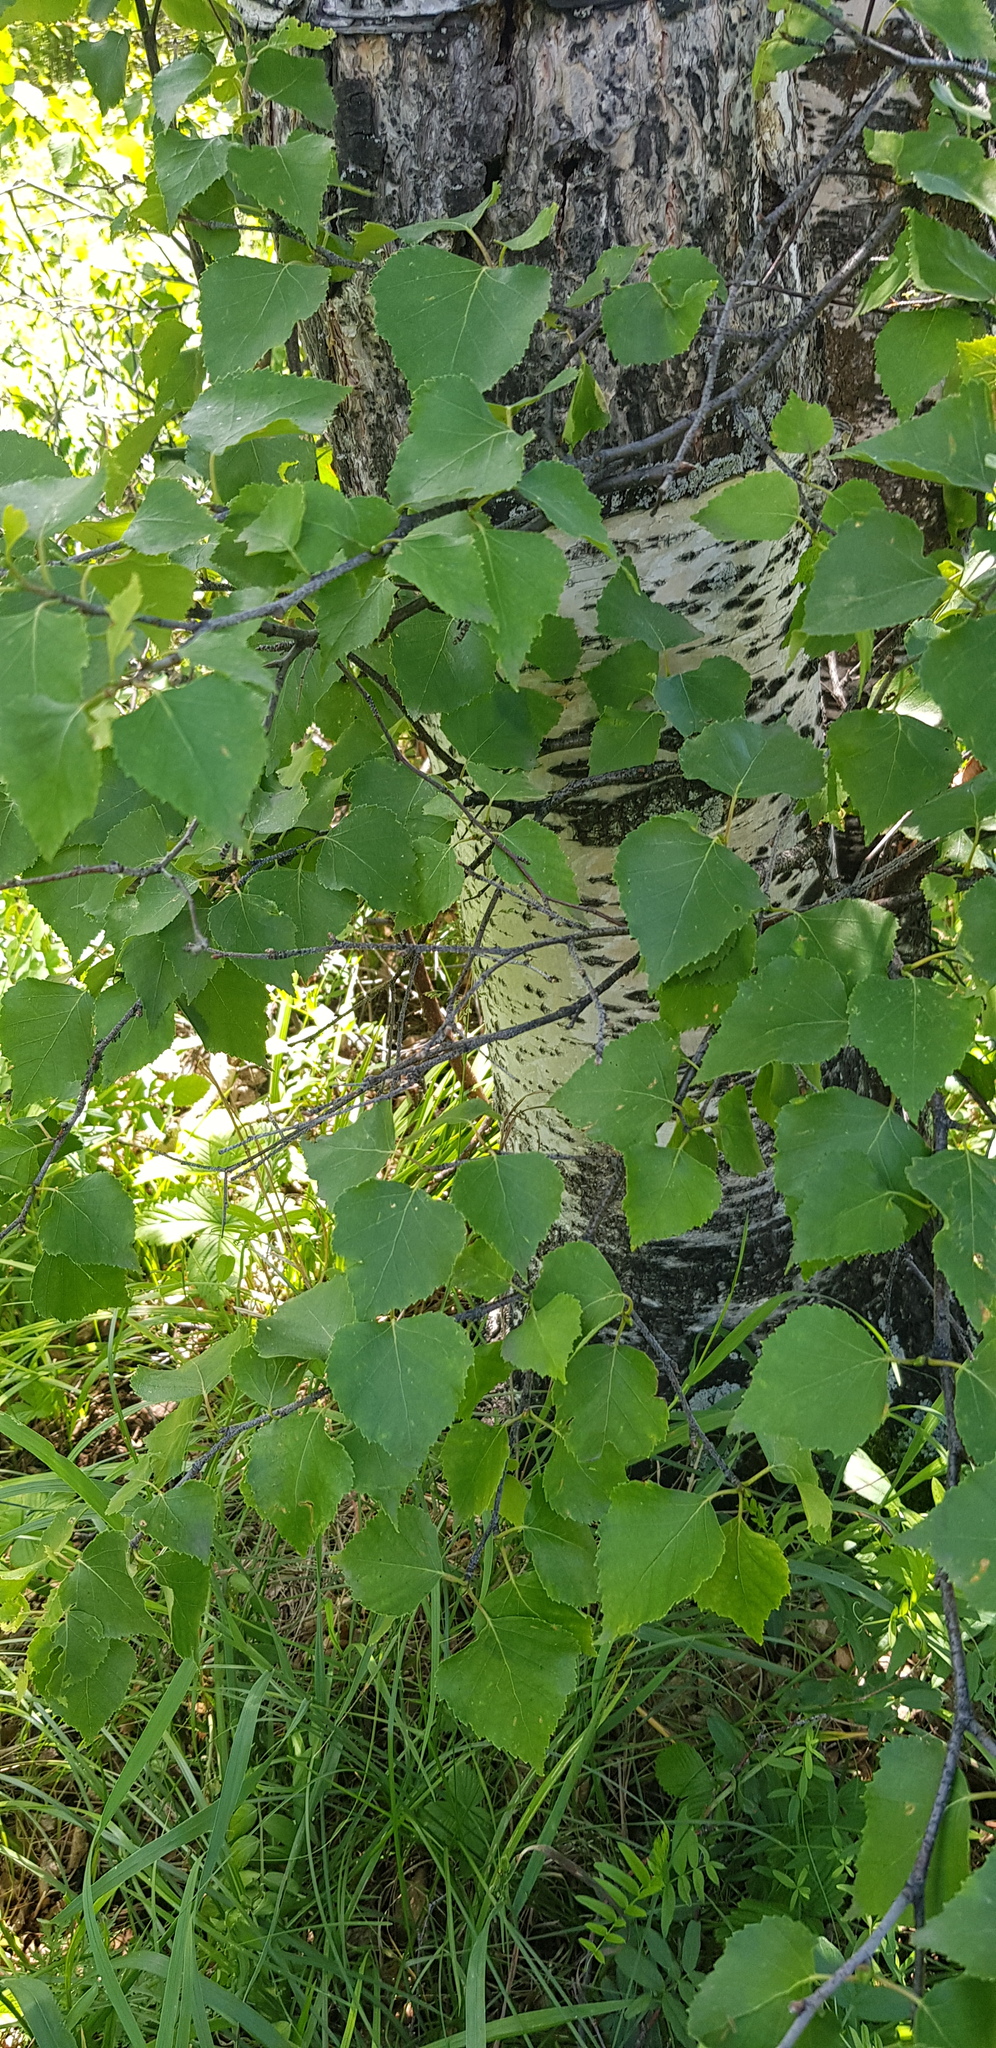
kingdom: Plantae
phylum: Tracheophyta
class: Magnoliopsida
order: Fagales
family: Betulaceae
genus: Betula
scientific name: Betula pendula
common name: Silver birch
